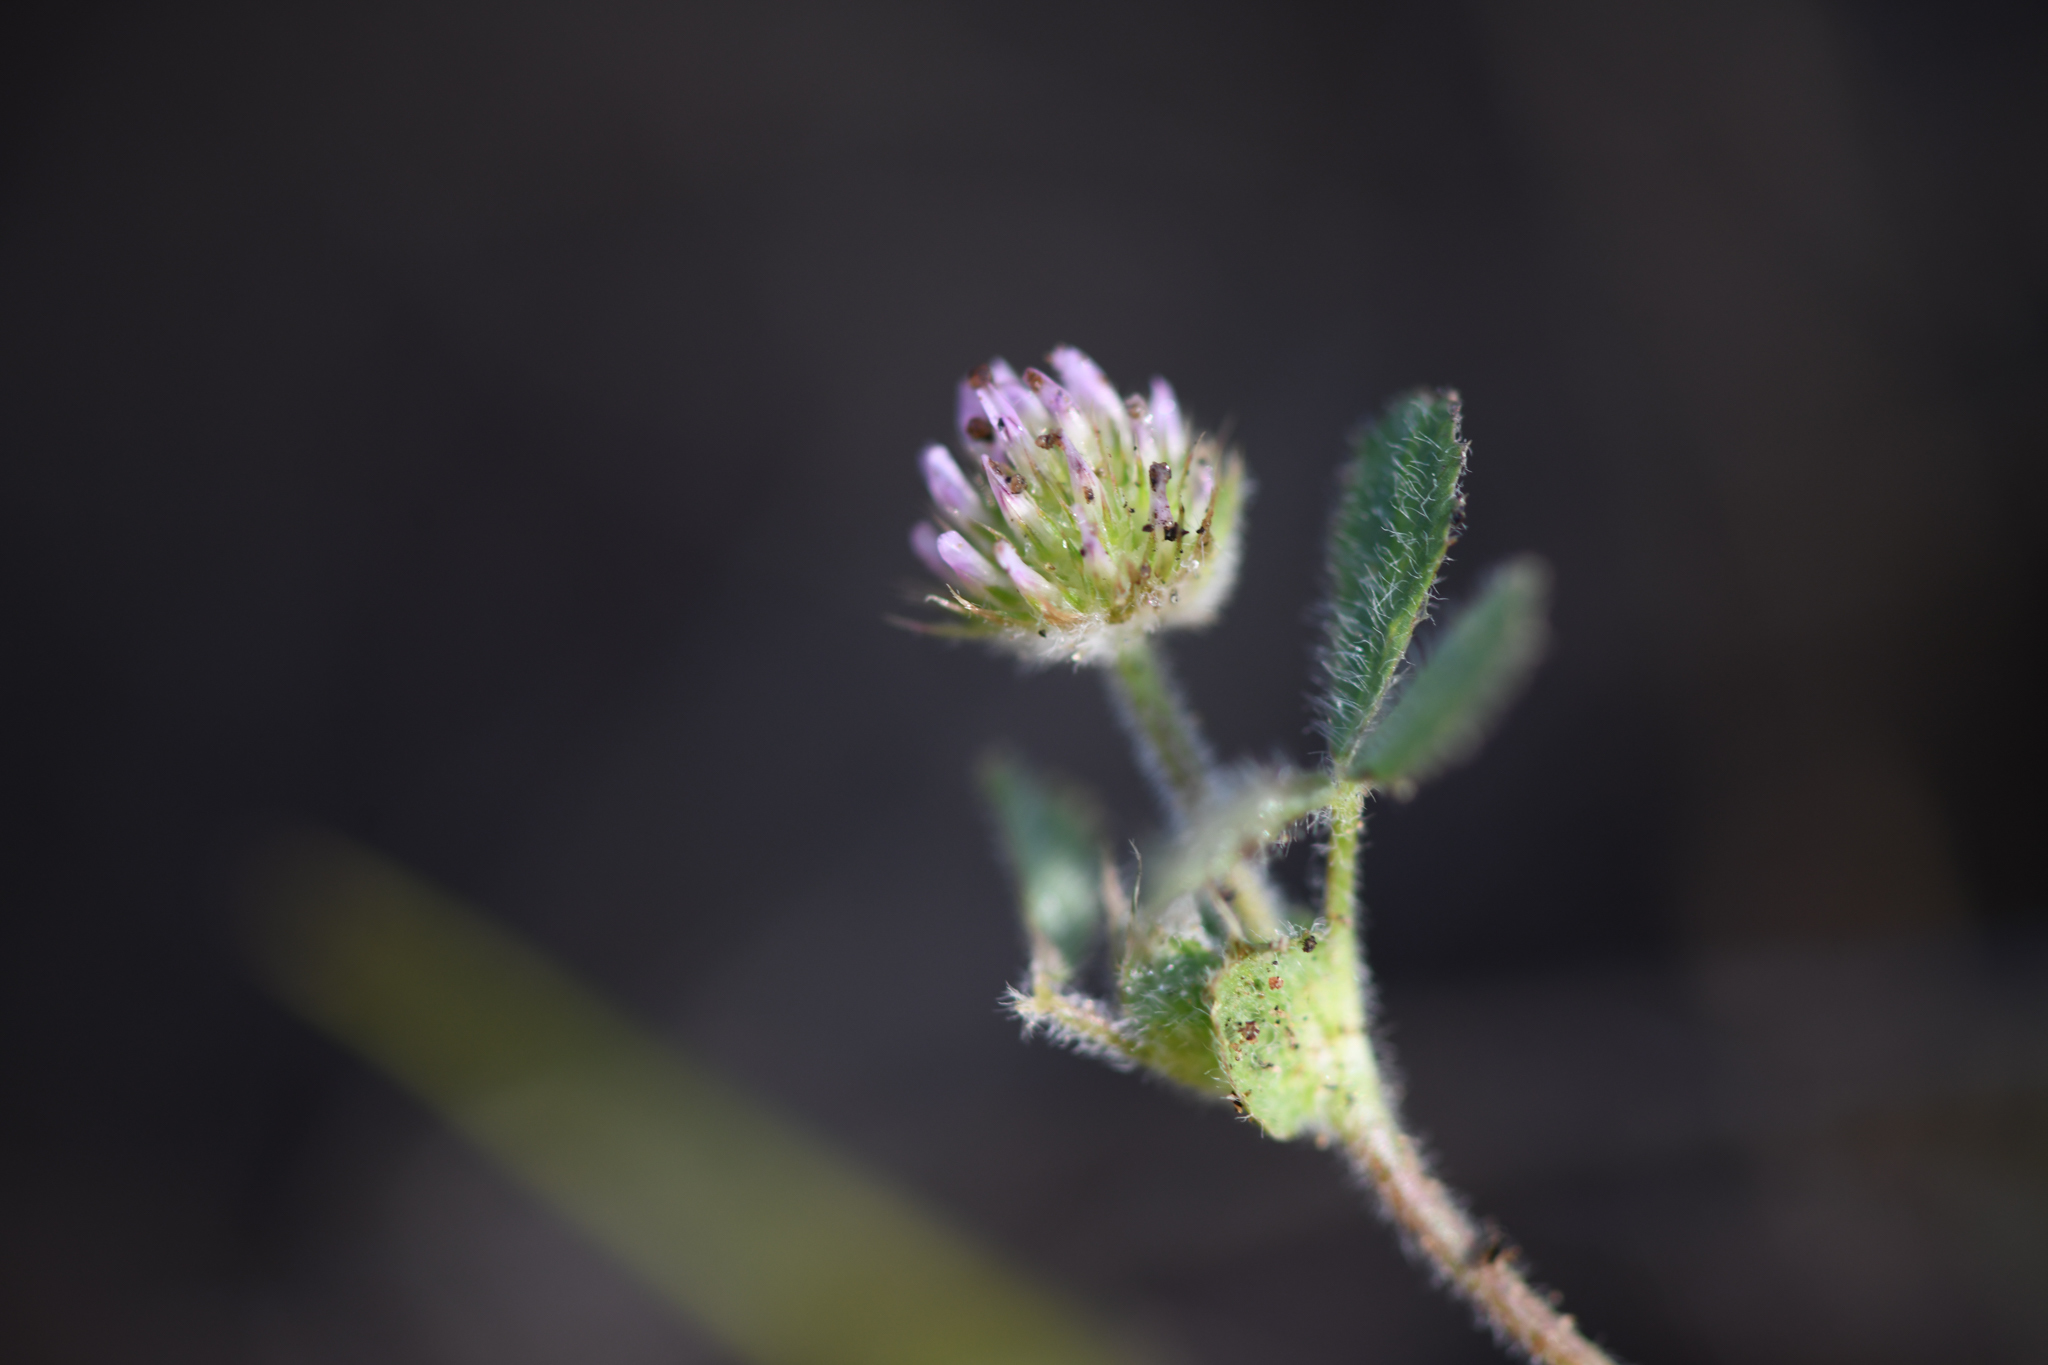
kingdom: Plantae
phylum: Tracheophyta
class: Magnoliopsida
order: Fabales
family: Fabaceae
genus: Trifolium
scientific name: Trifolium microcephalum
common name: Maiden clover
